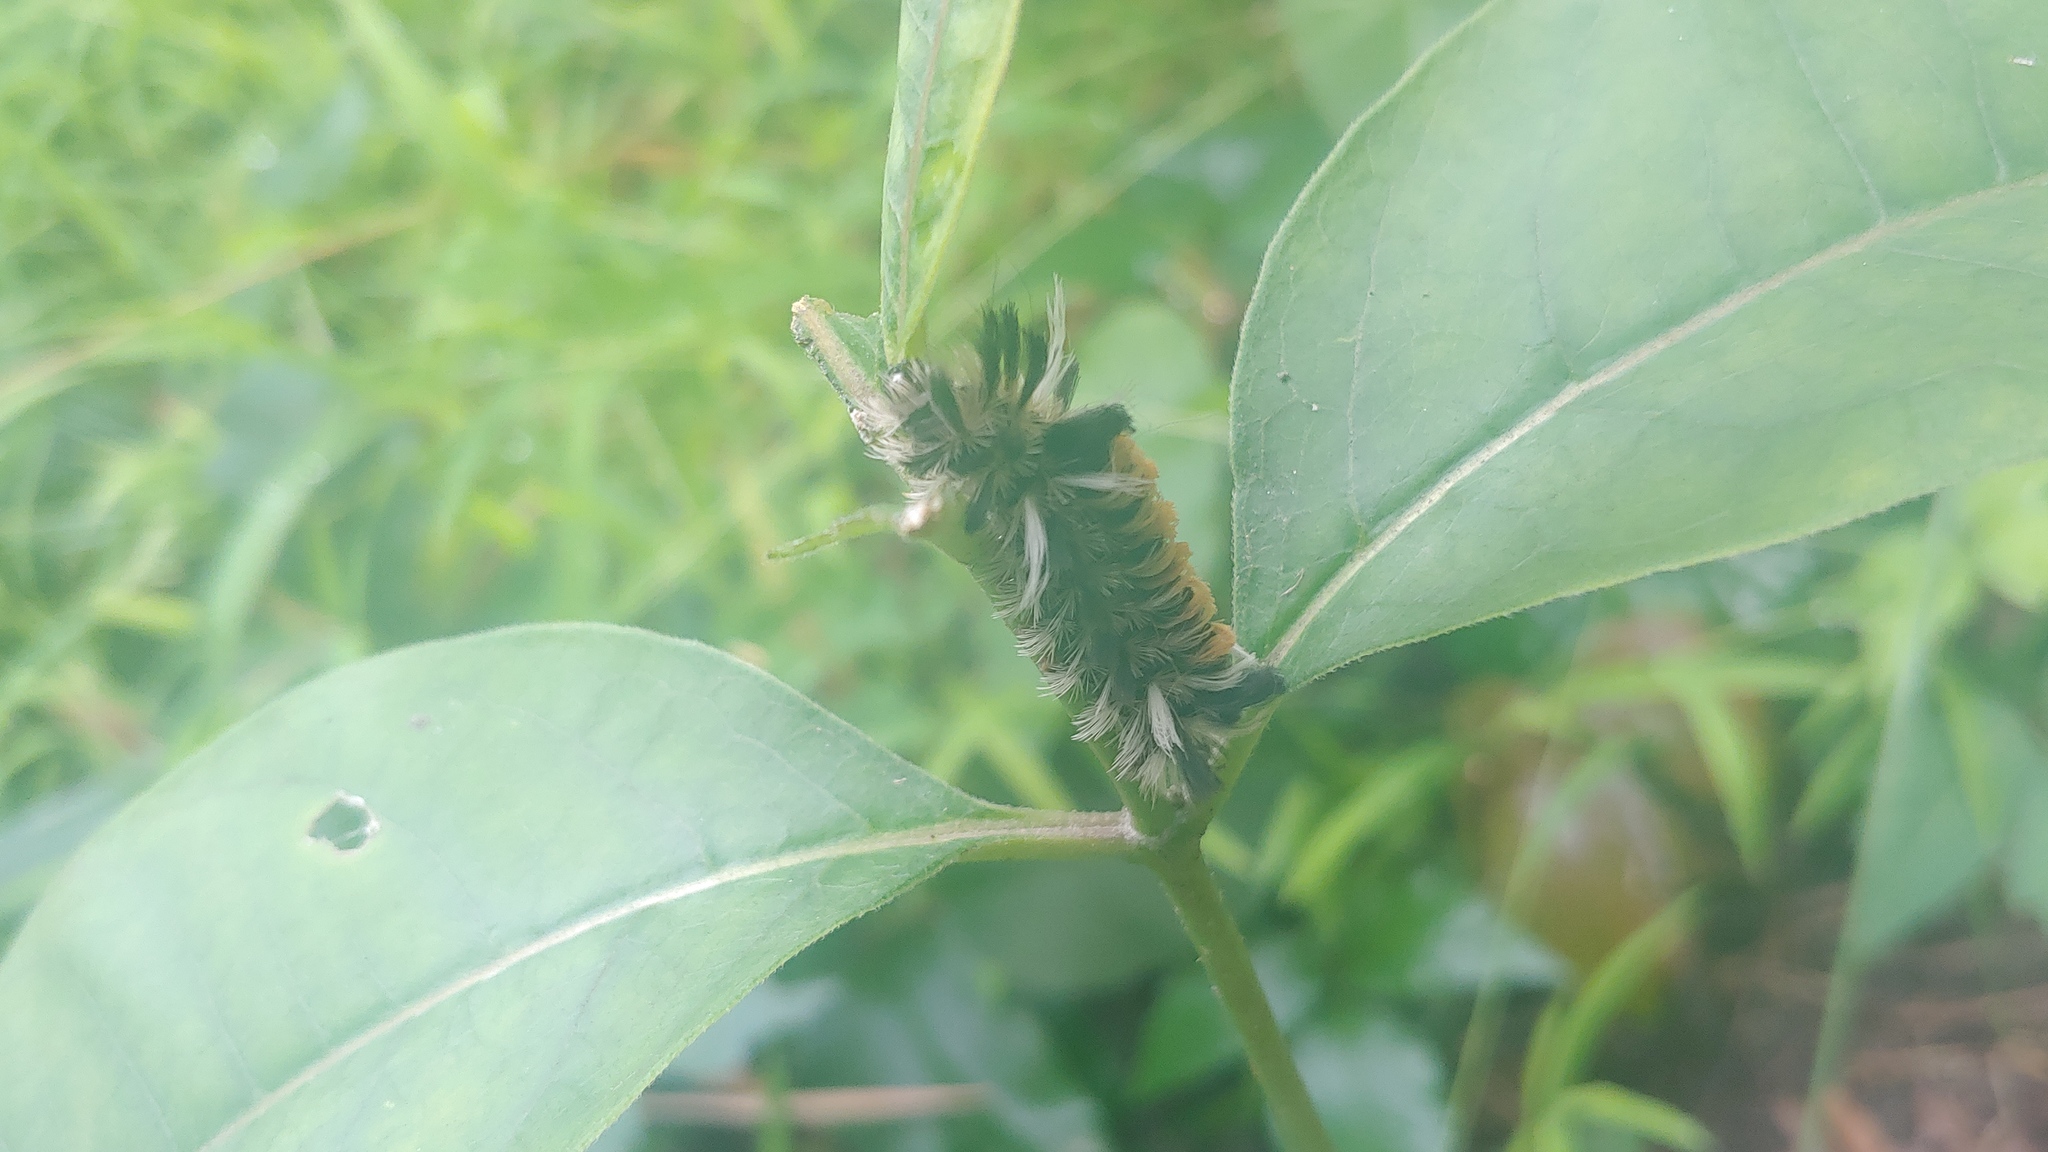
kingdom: Animalia
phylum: Arthropoda
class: Insecta
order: Lepidoptera
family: Erebidae
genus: Euchaetes
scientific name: Euchaetes egle
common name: Milkweed tussock moth
